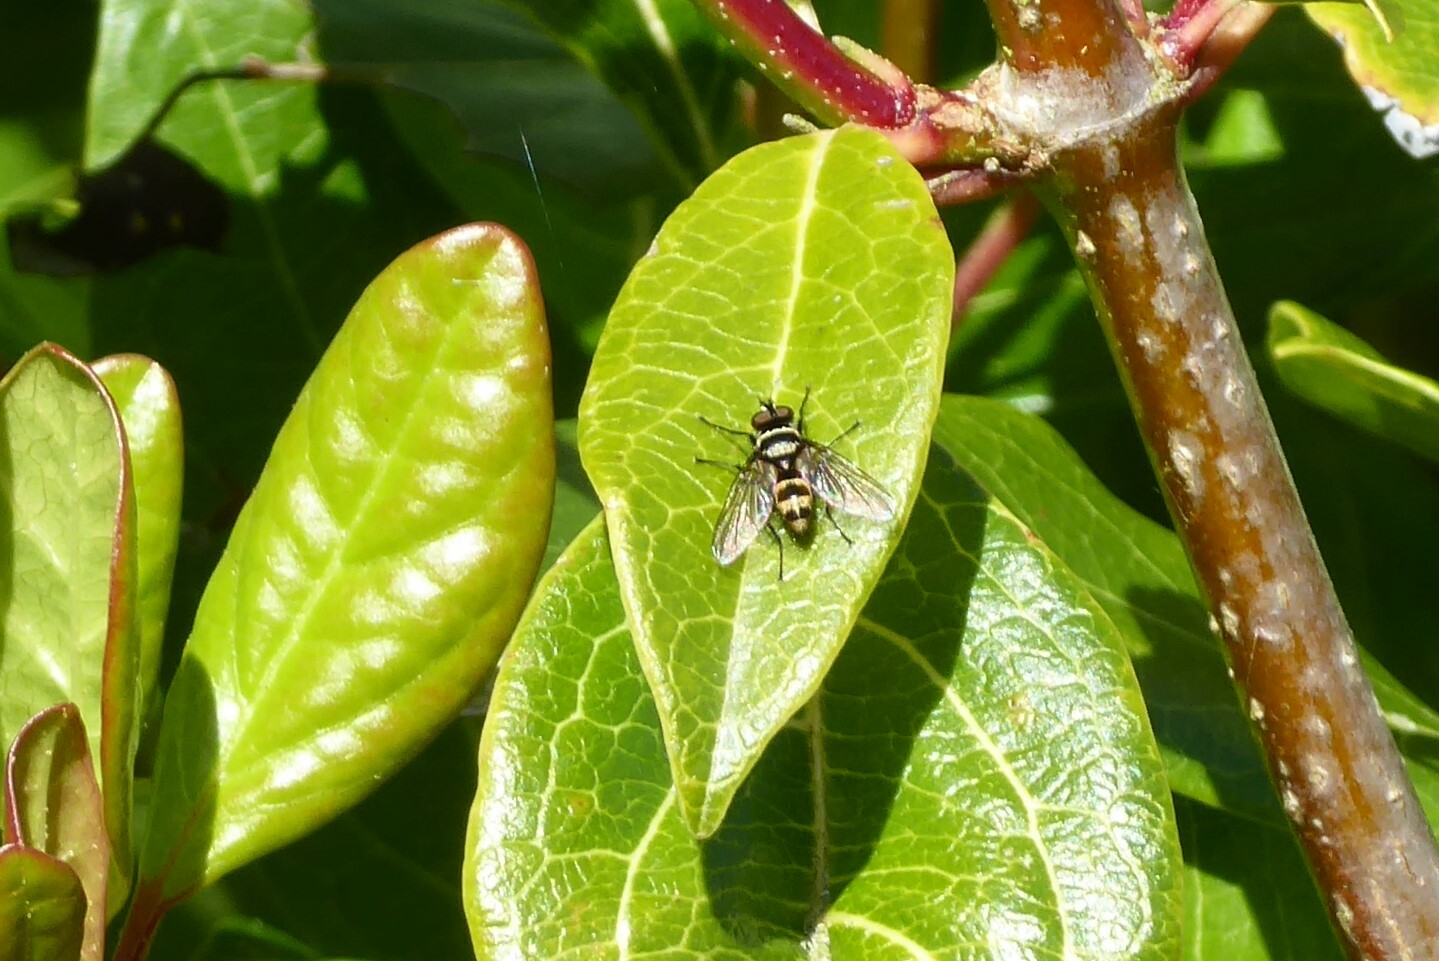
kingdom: Animalia
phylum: Arthropoda
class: Insecta
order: Diptera
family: Tachinidae
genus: Trigonospila
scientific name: Trigonospila brevifacies
